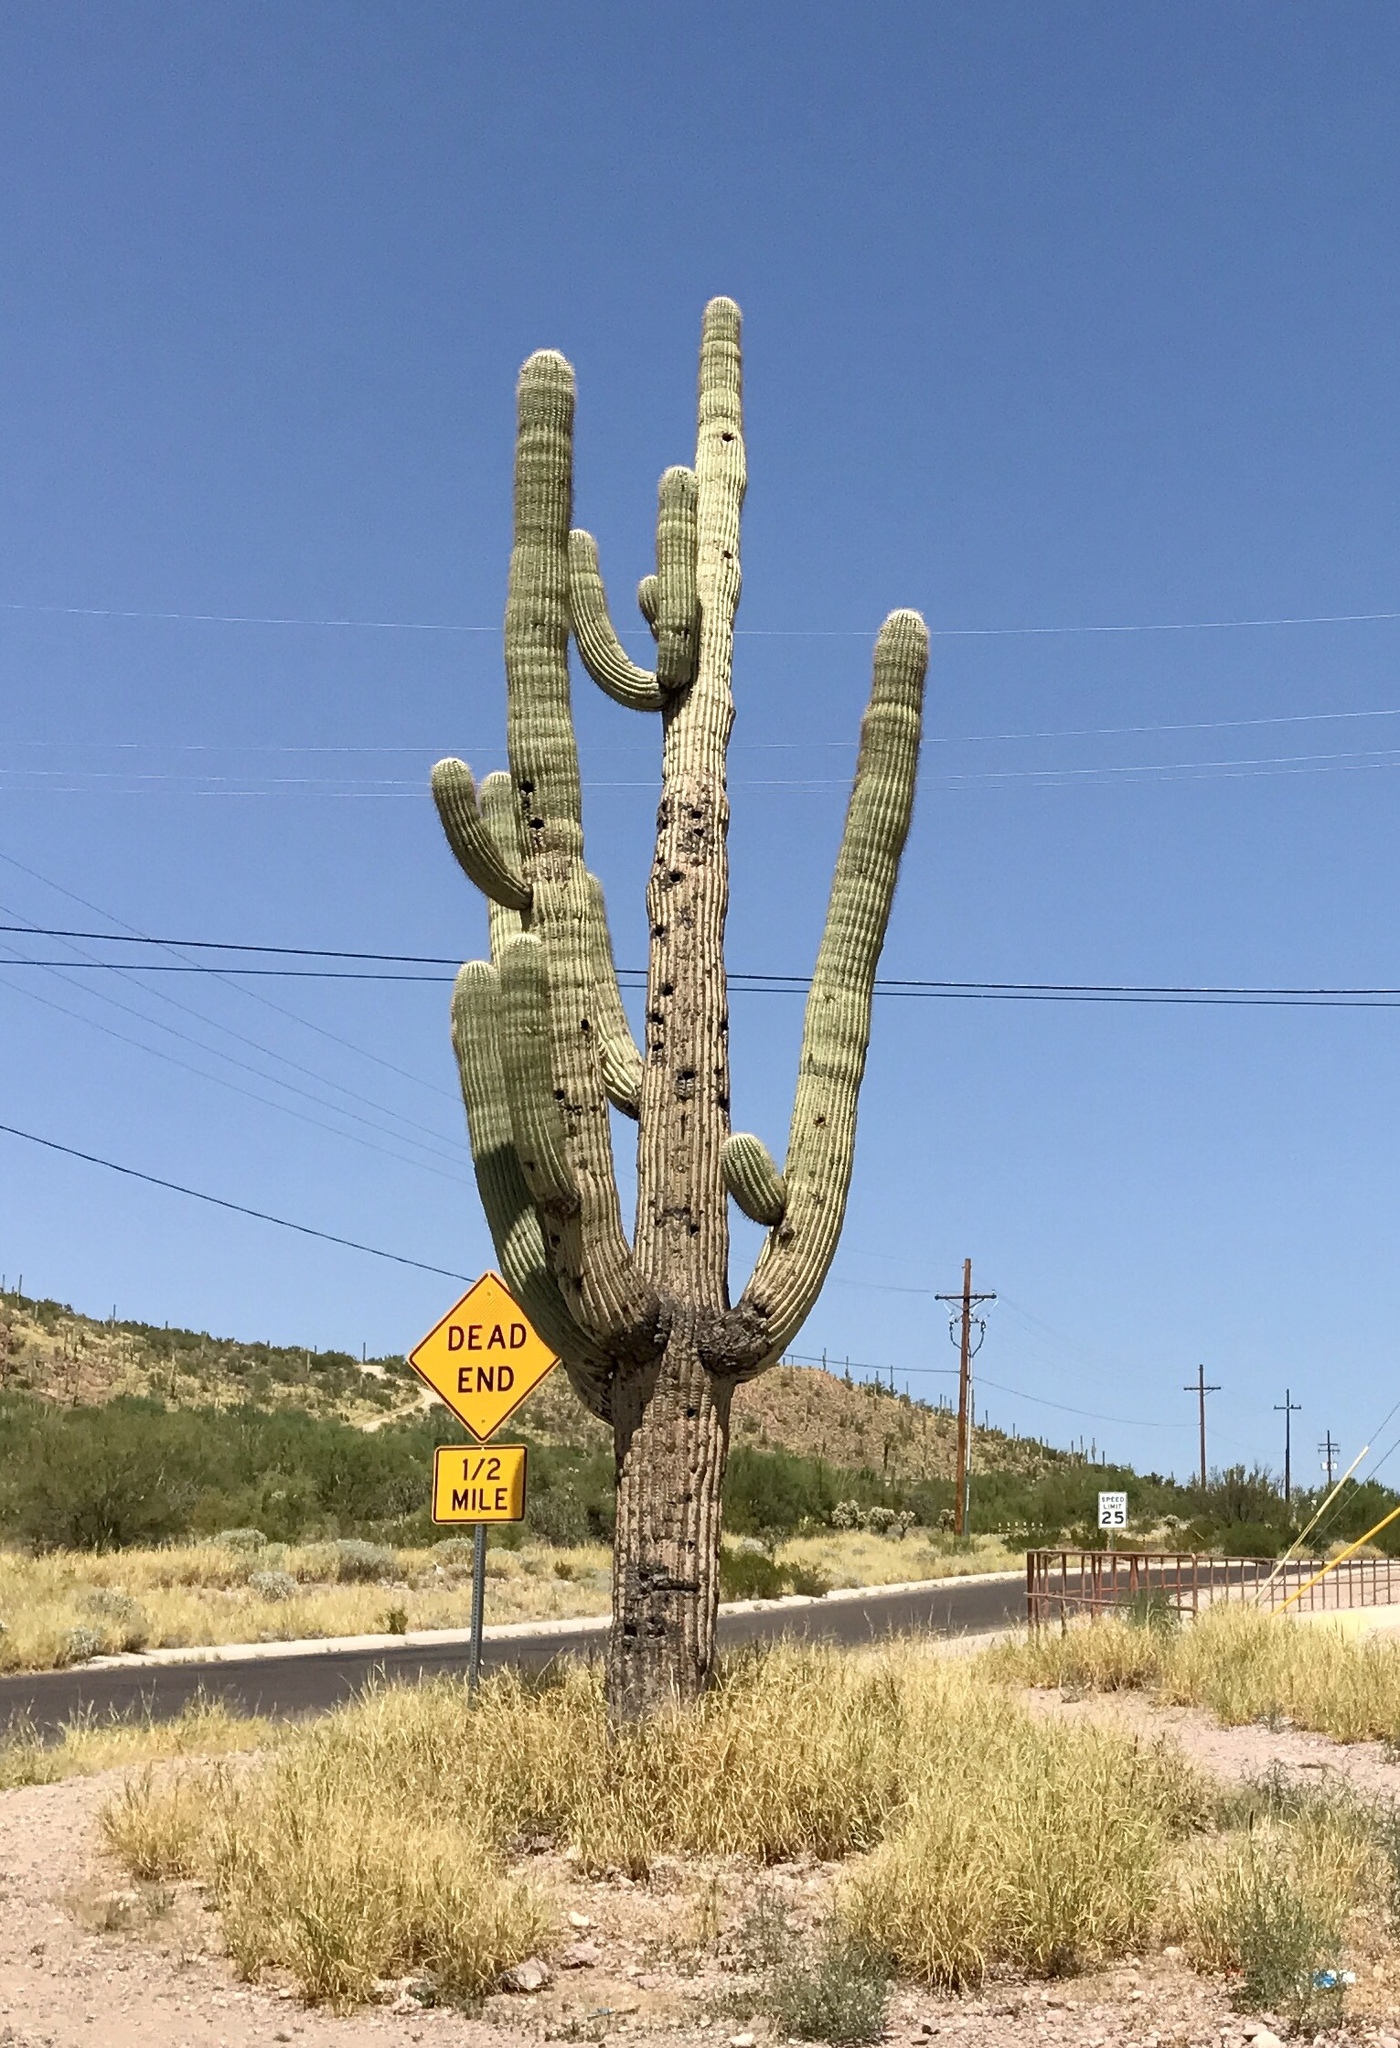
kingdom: Plantae
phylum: Tracheophyta
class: Magnoliopsida
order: Caryophyllales
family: Cactaceae
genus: Carnegiea
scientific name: Carnegiea gigantea
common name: Saguaro
